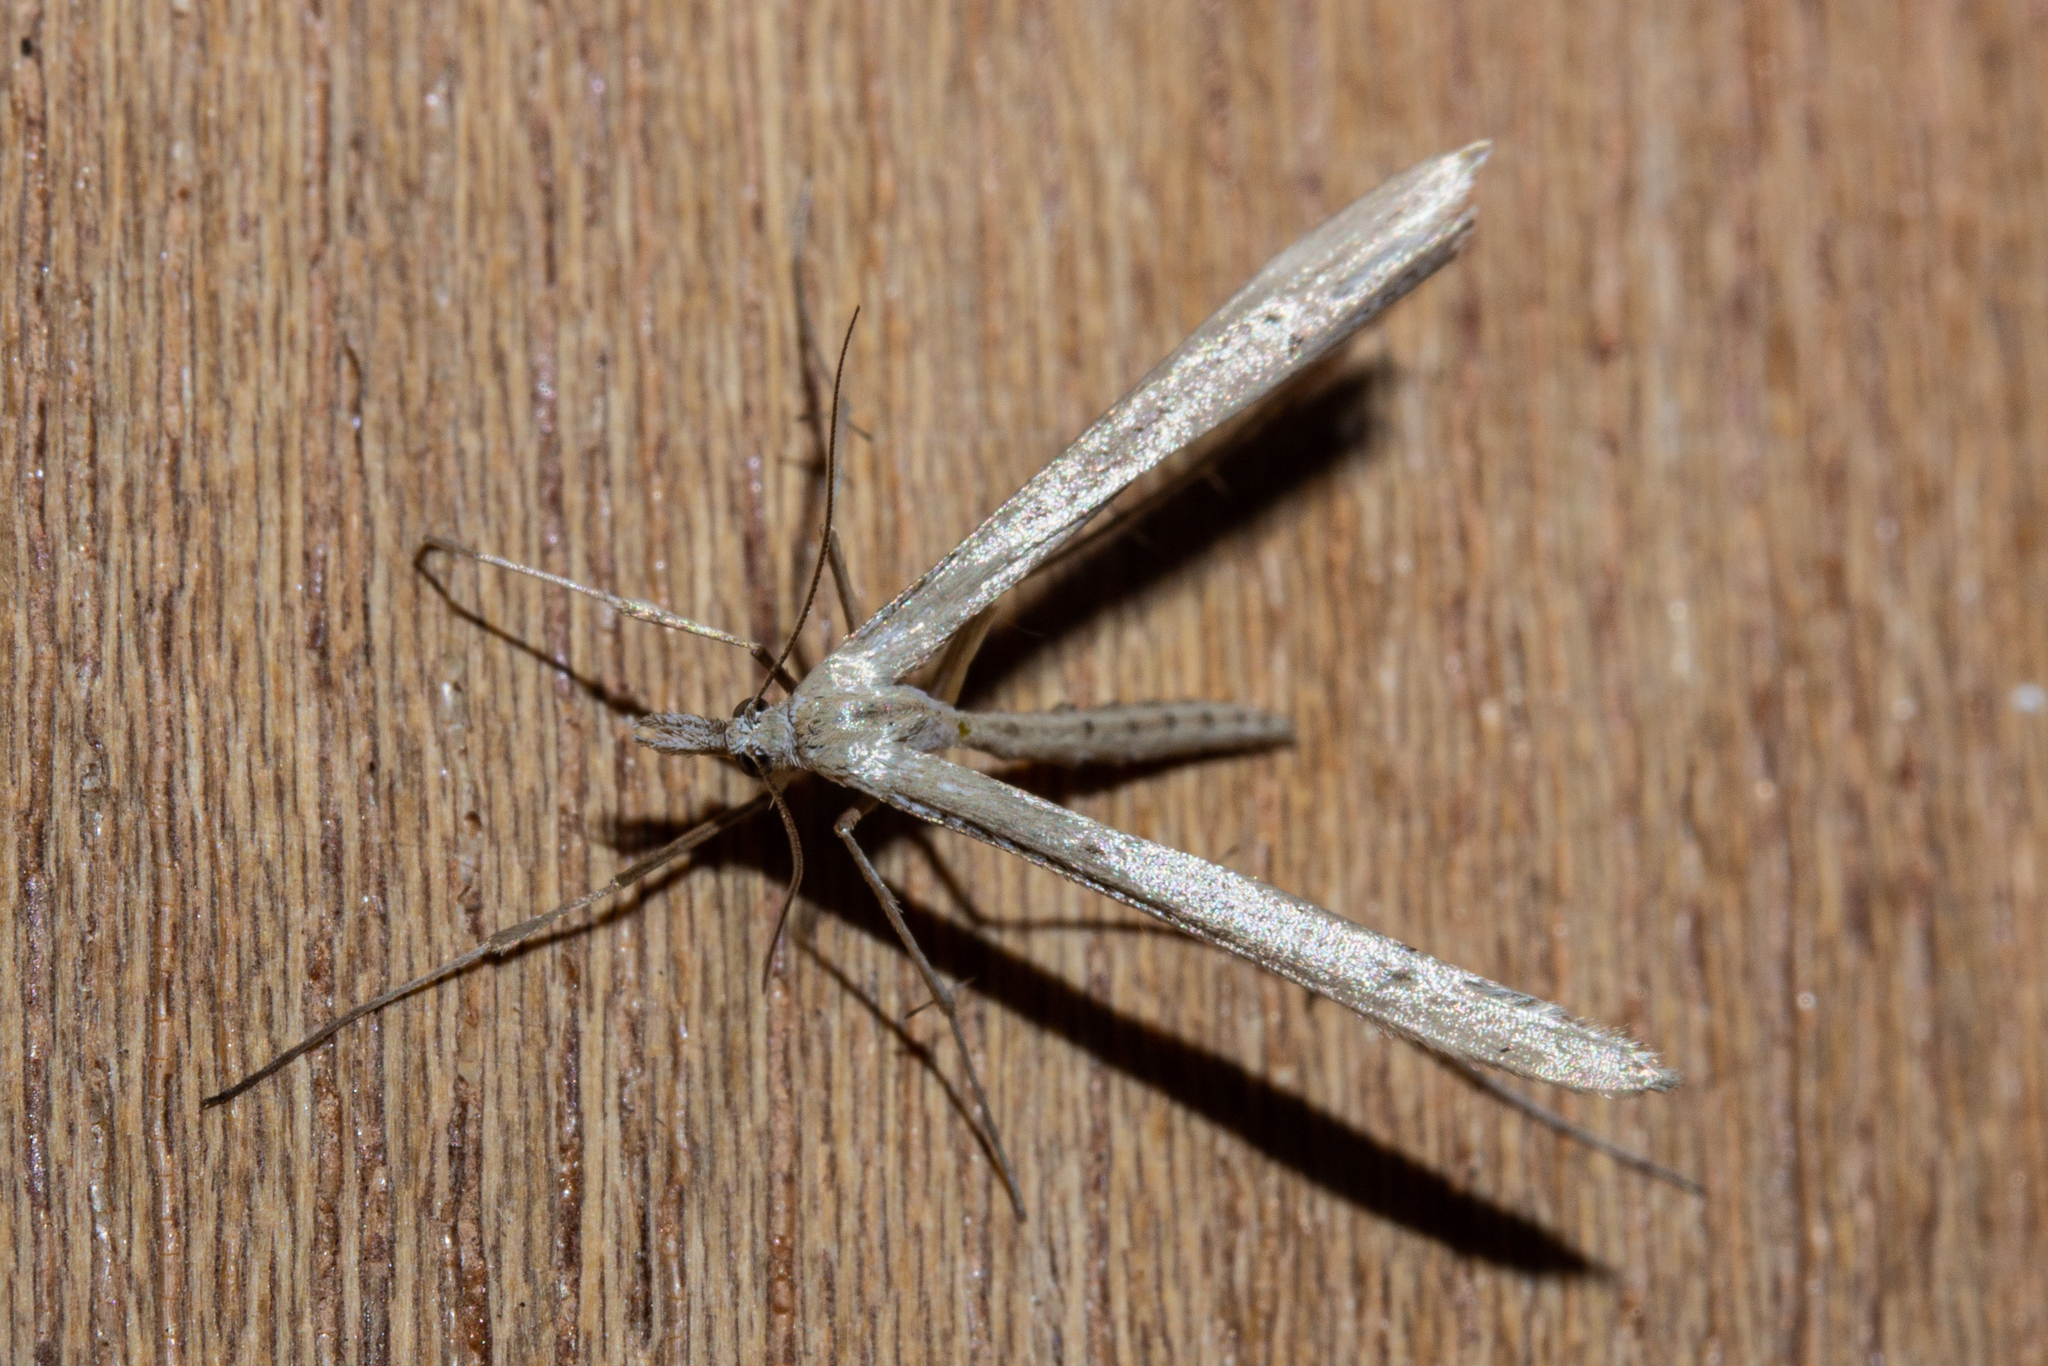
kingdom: Animalia
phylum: Arthropoda
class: Insecta
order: Lepidoptera
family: Pterophoridae
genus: Stenoptilia
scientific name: Stenoptilia orites
